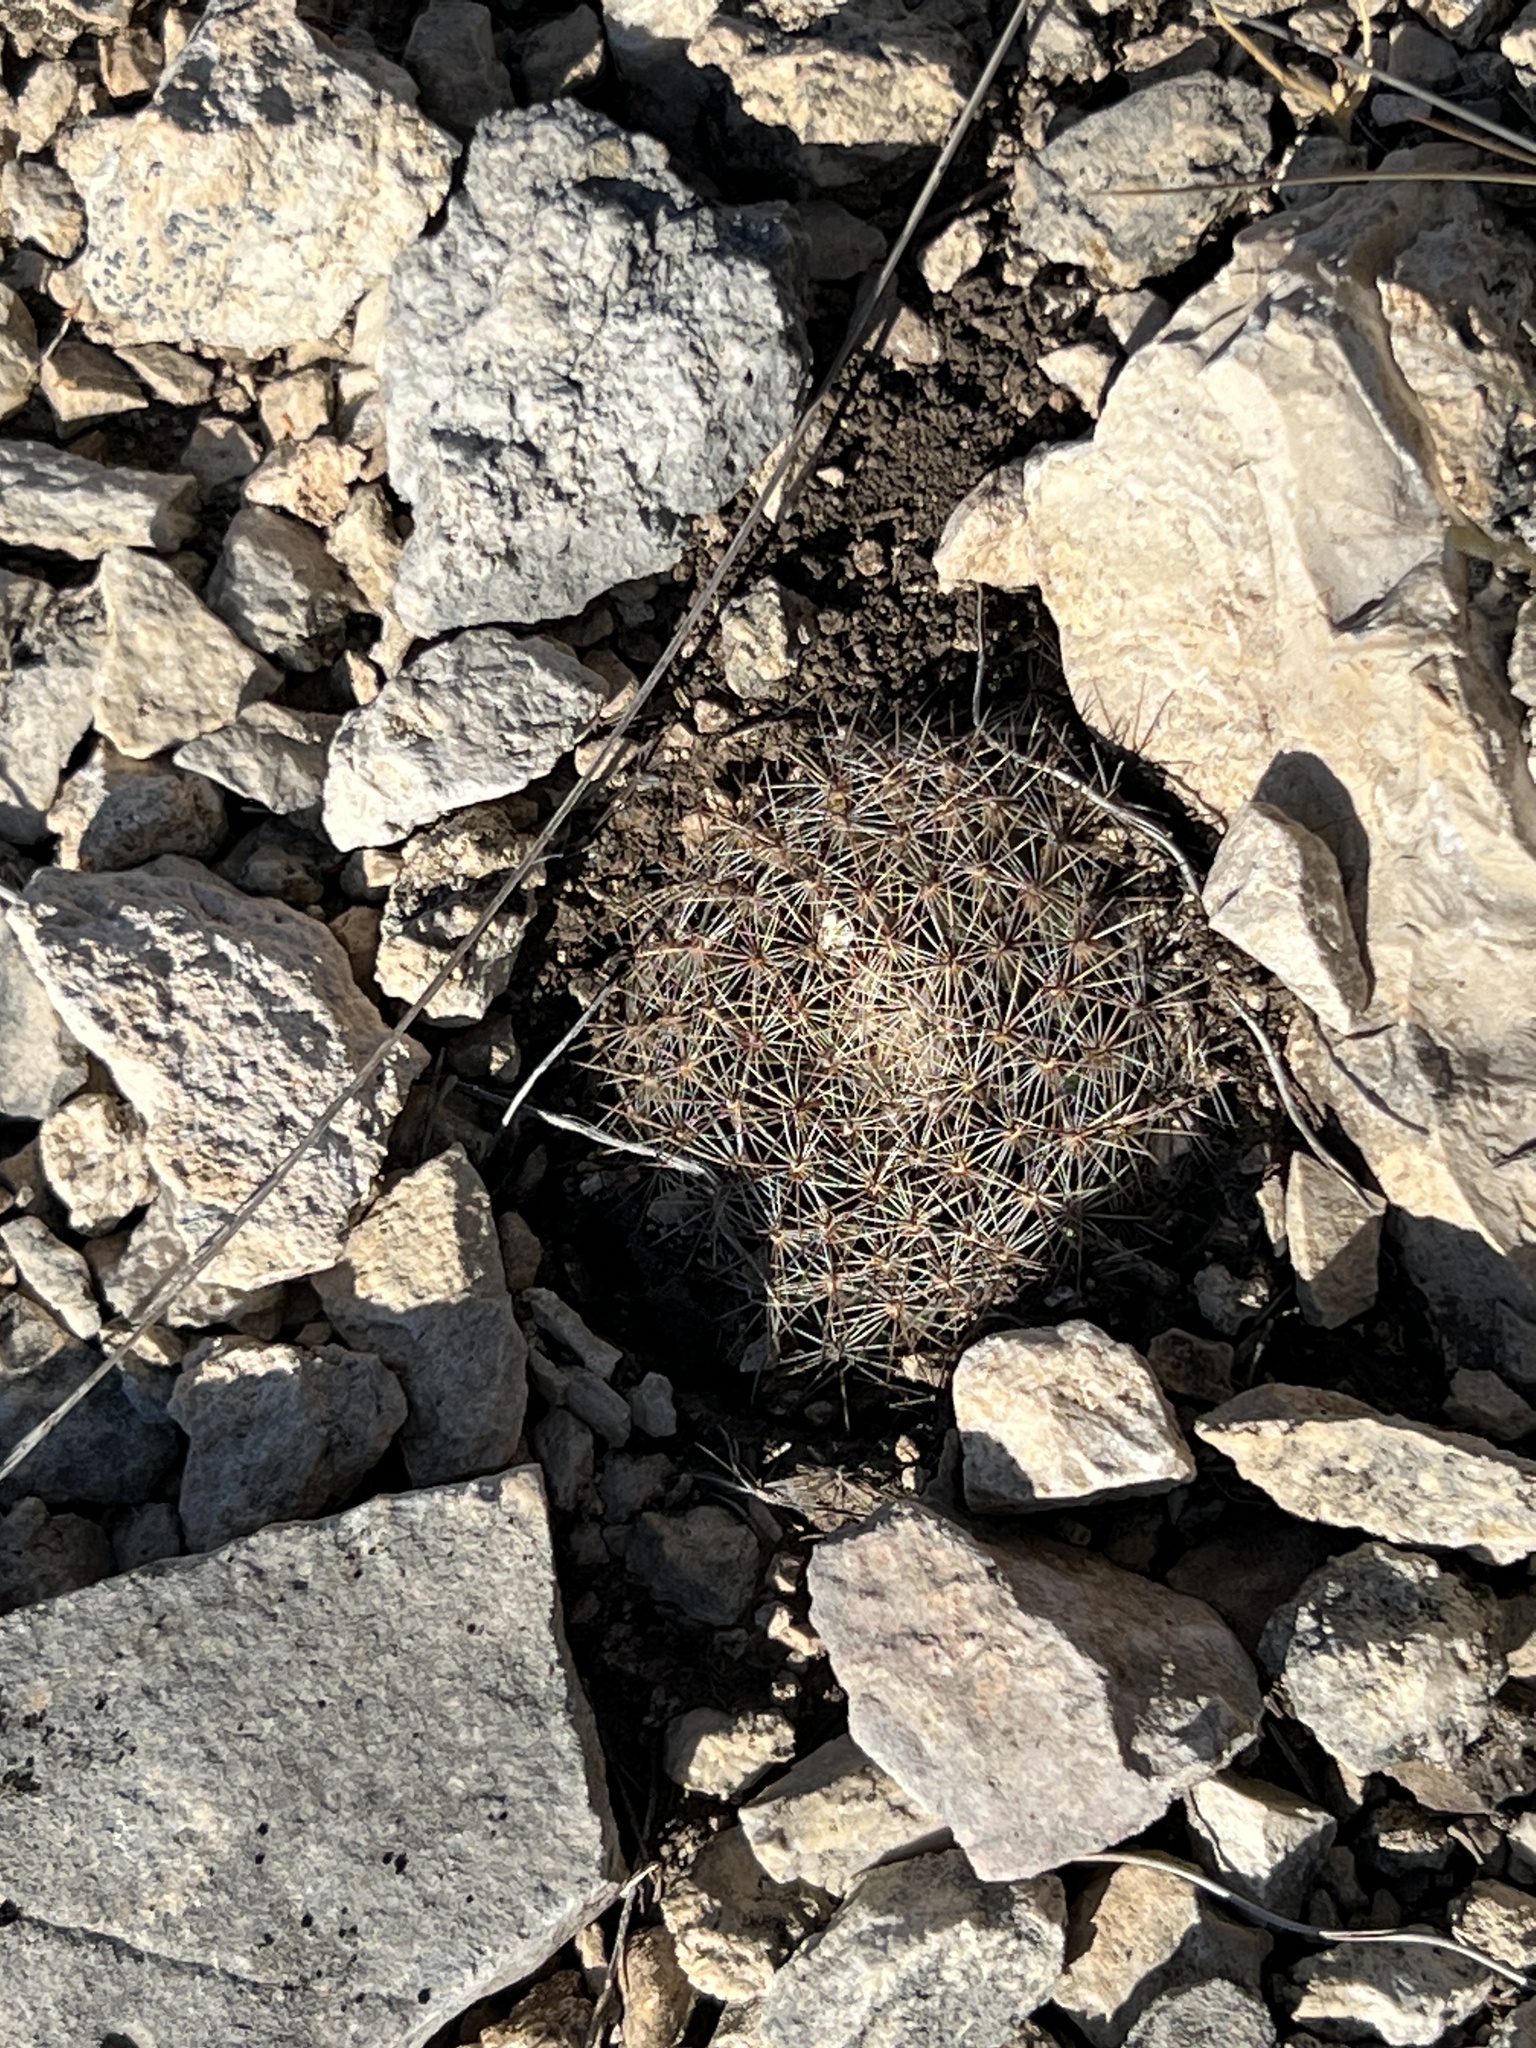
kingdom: Plantae
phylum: Tracheophyta
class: Magnoliopsida
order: Caryophyllales
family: Cactaceae
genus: Mammillaria
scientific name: Mammillaria heyderi
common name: Little nipple cactus
